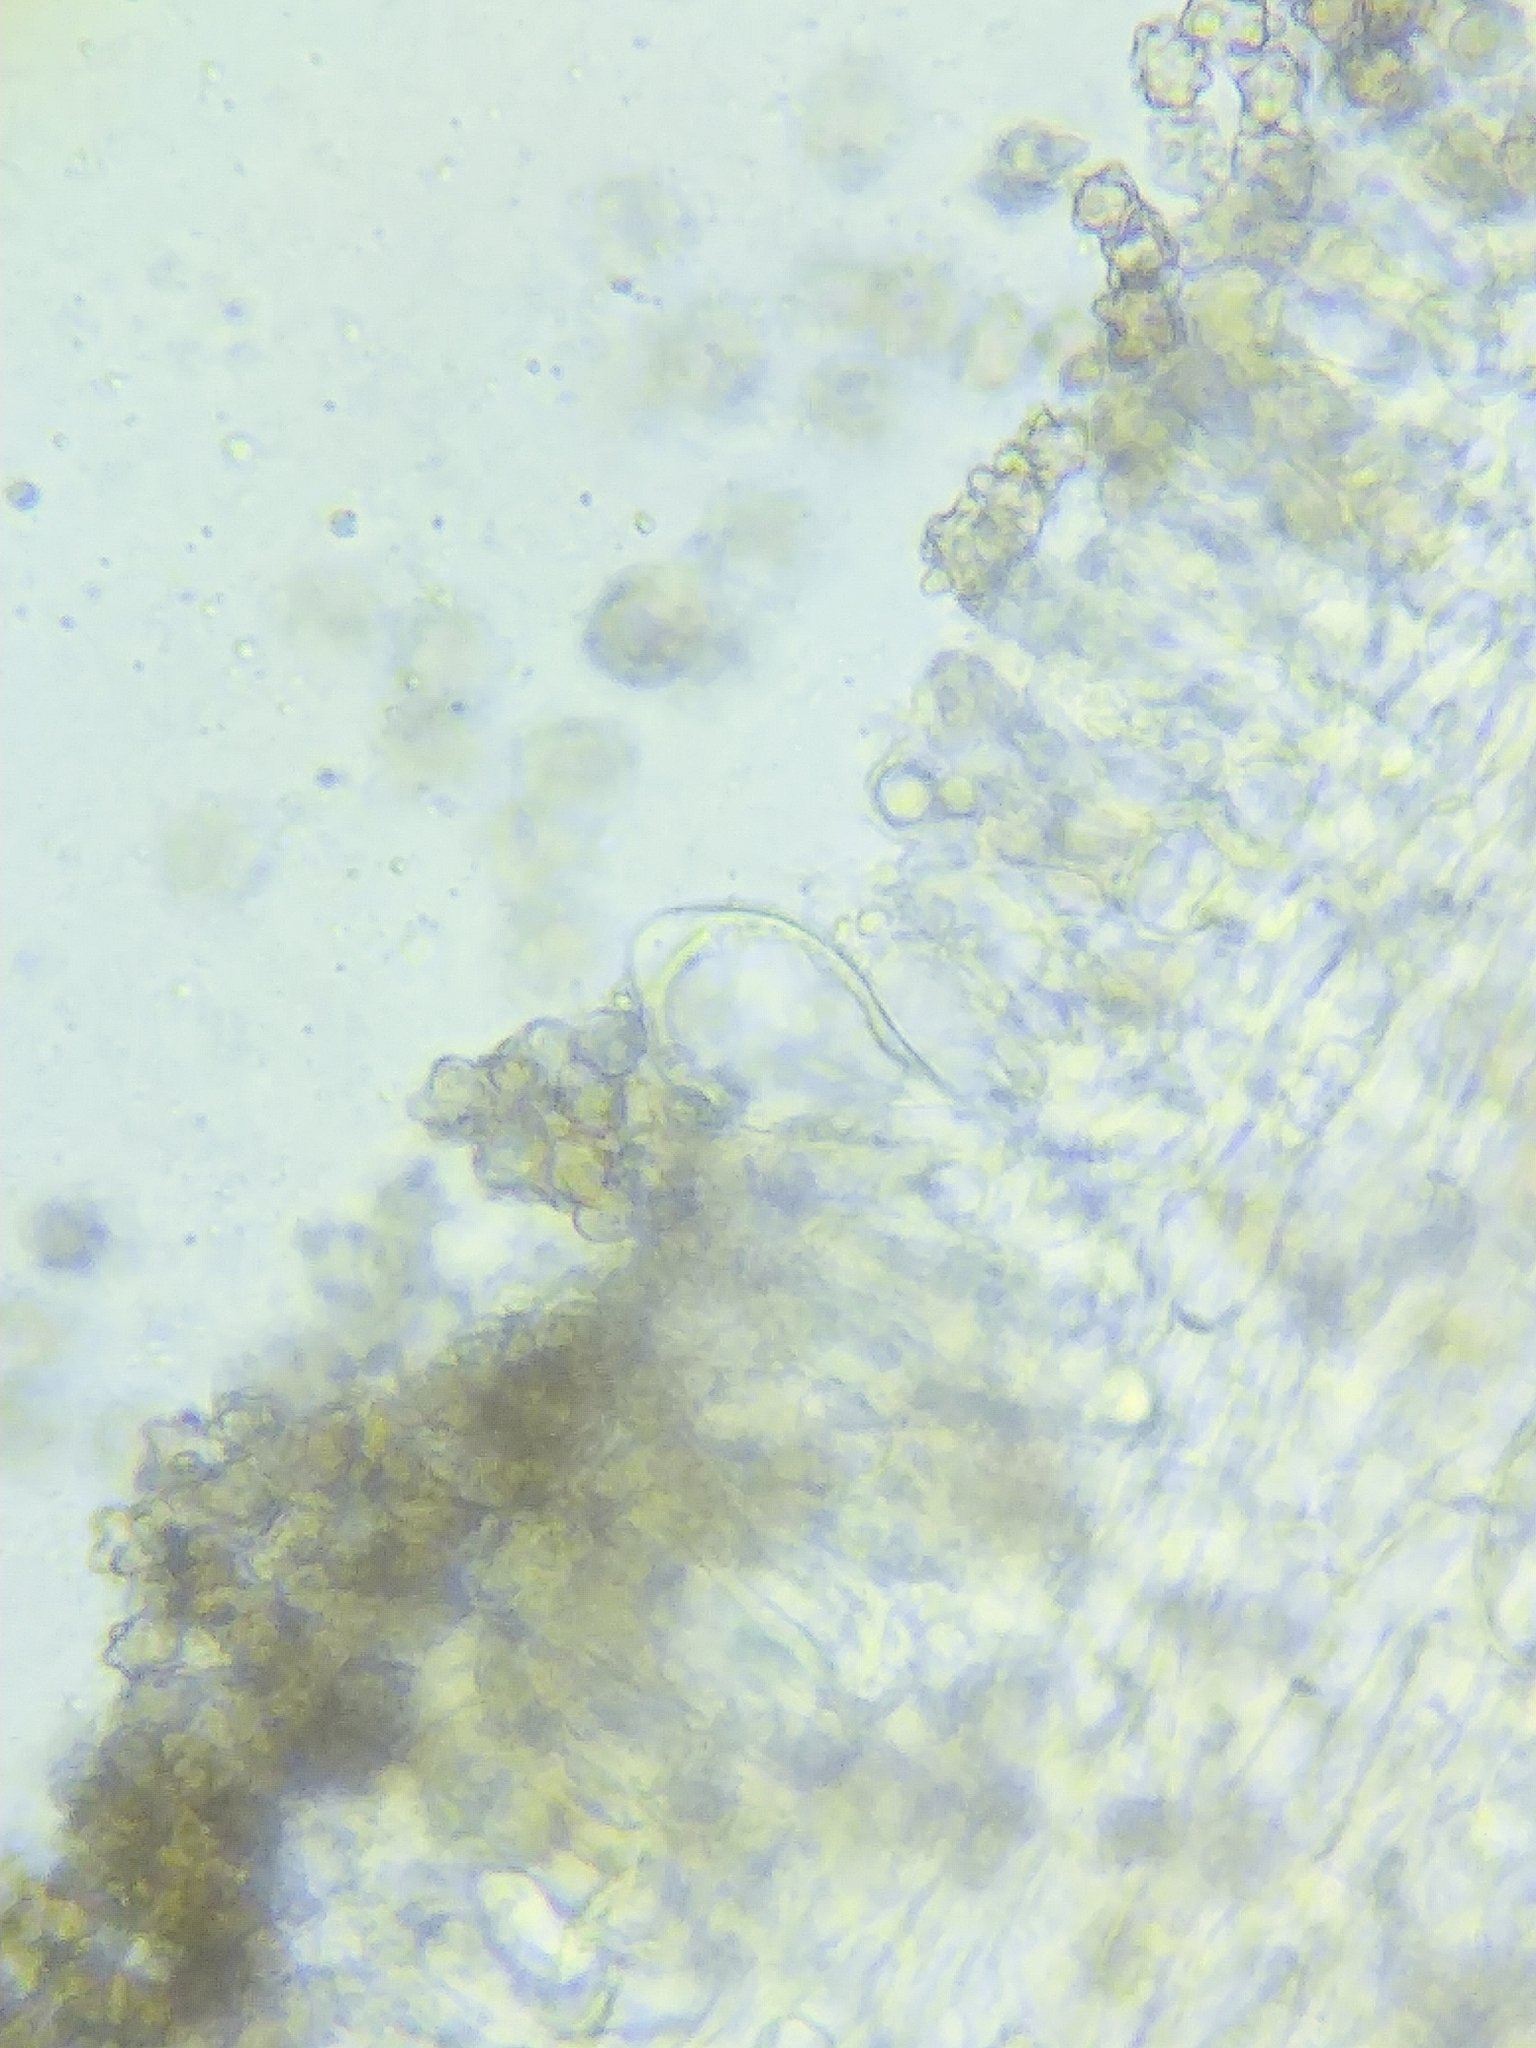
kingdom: Fungi
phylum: Basidiomycota
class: Agaricomycetes
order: Agaricales
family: Inocybaceae
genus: Inocybe
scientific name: Inocybe diminuta
